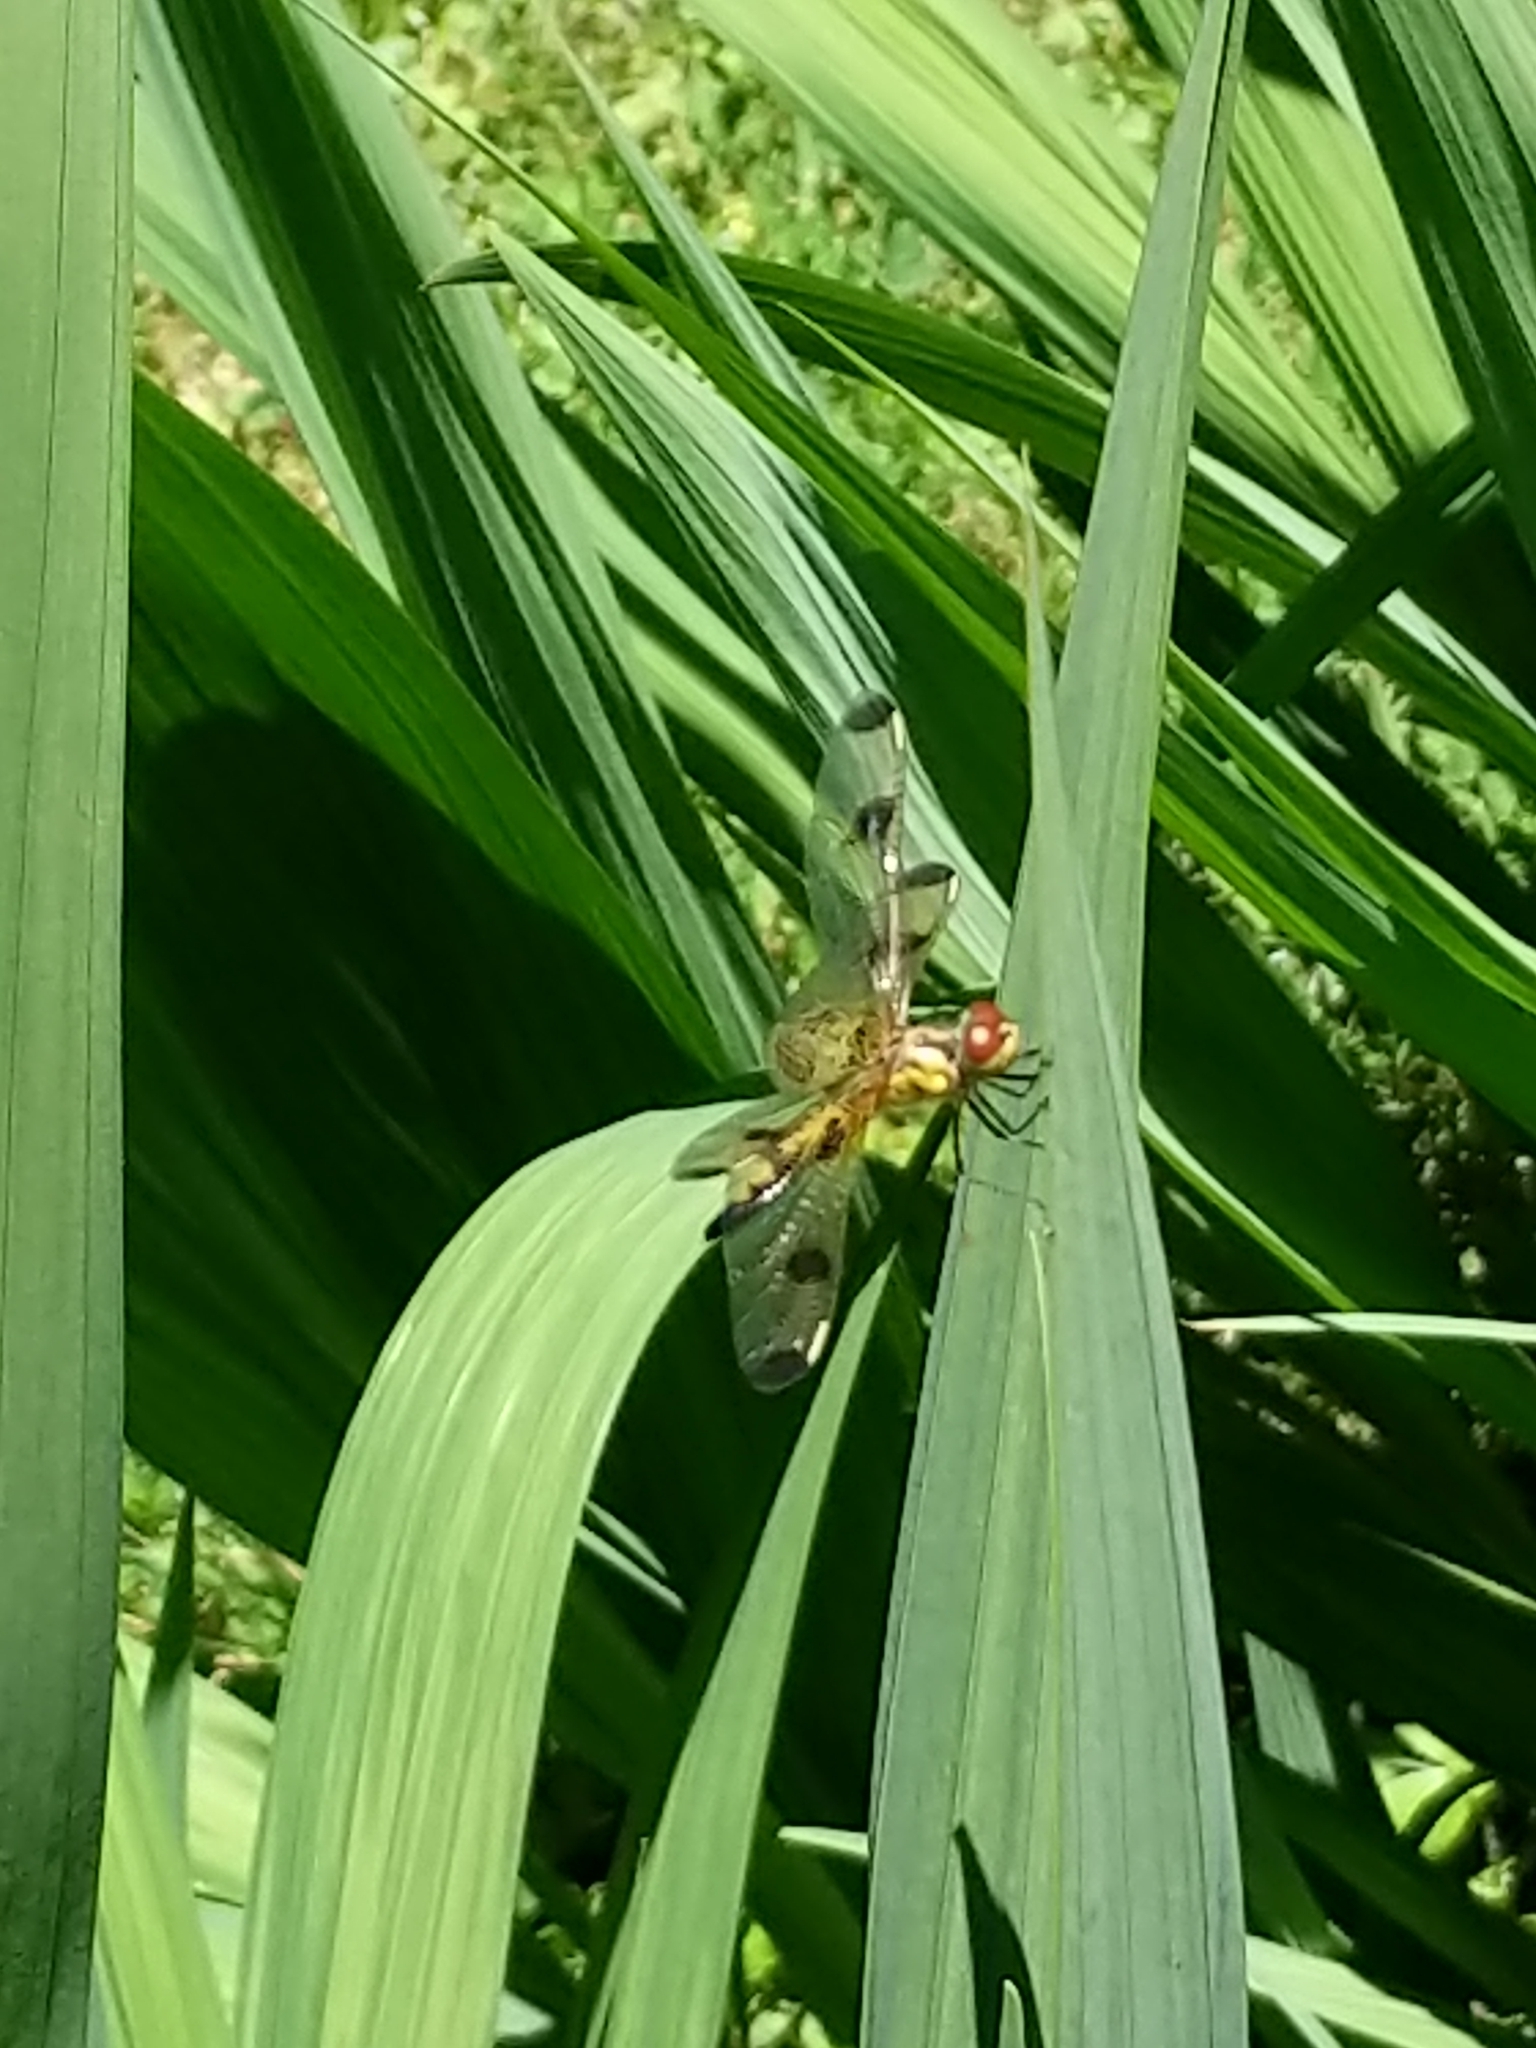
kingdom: Animalia
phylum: Arthropoda
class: Insecta
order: Odonata
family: Libellulidae
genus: Celithemis
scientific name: Celithemis elisa
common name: Calico pennant
